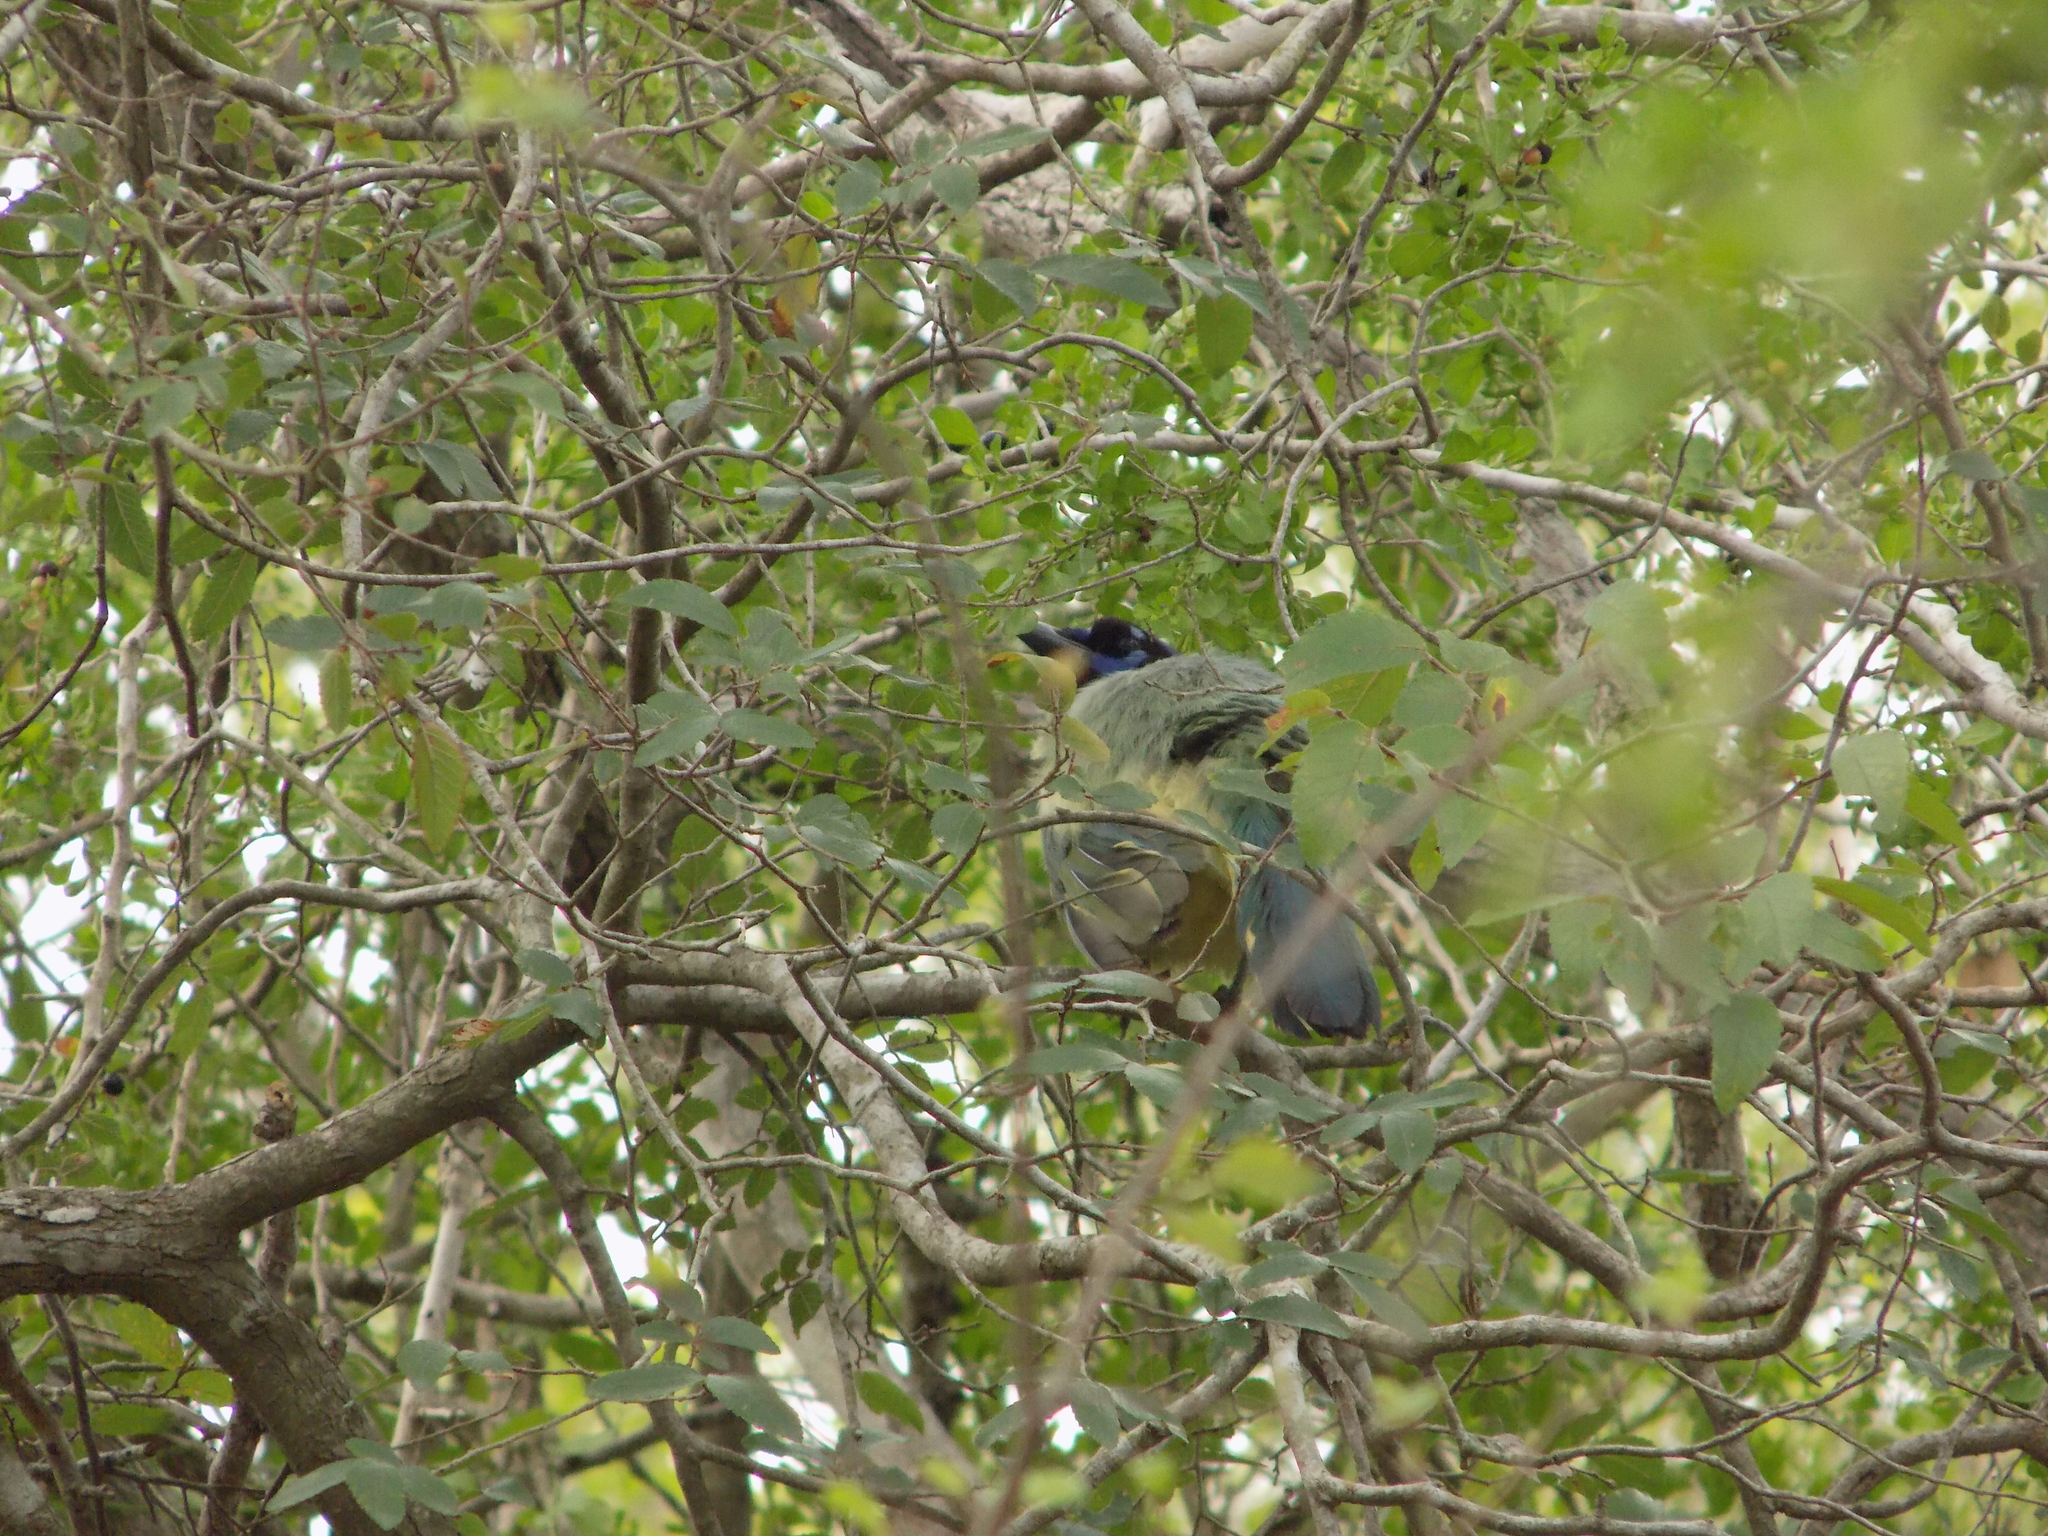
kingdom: Animalia
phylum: Chordata
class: Aves
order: Passeriformes
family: Corvidae
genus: Cyanocorax
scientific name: Cyanocorax yncas
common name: Green jay
